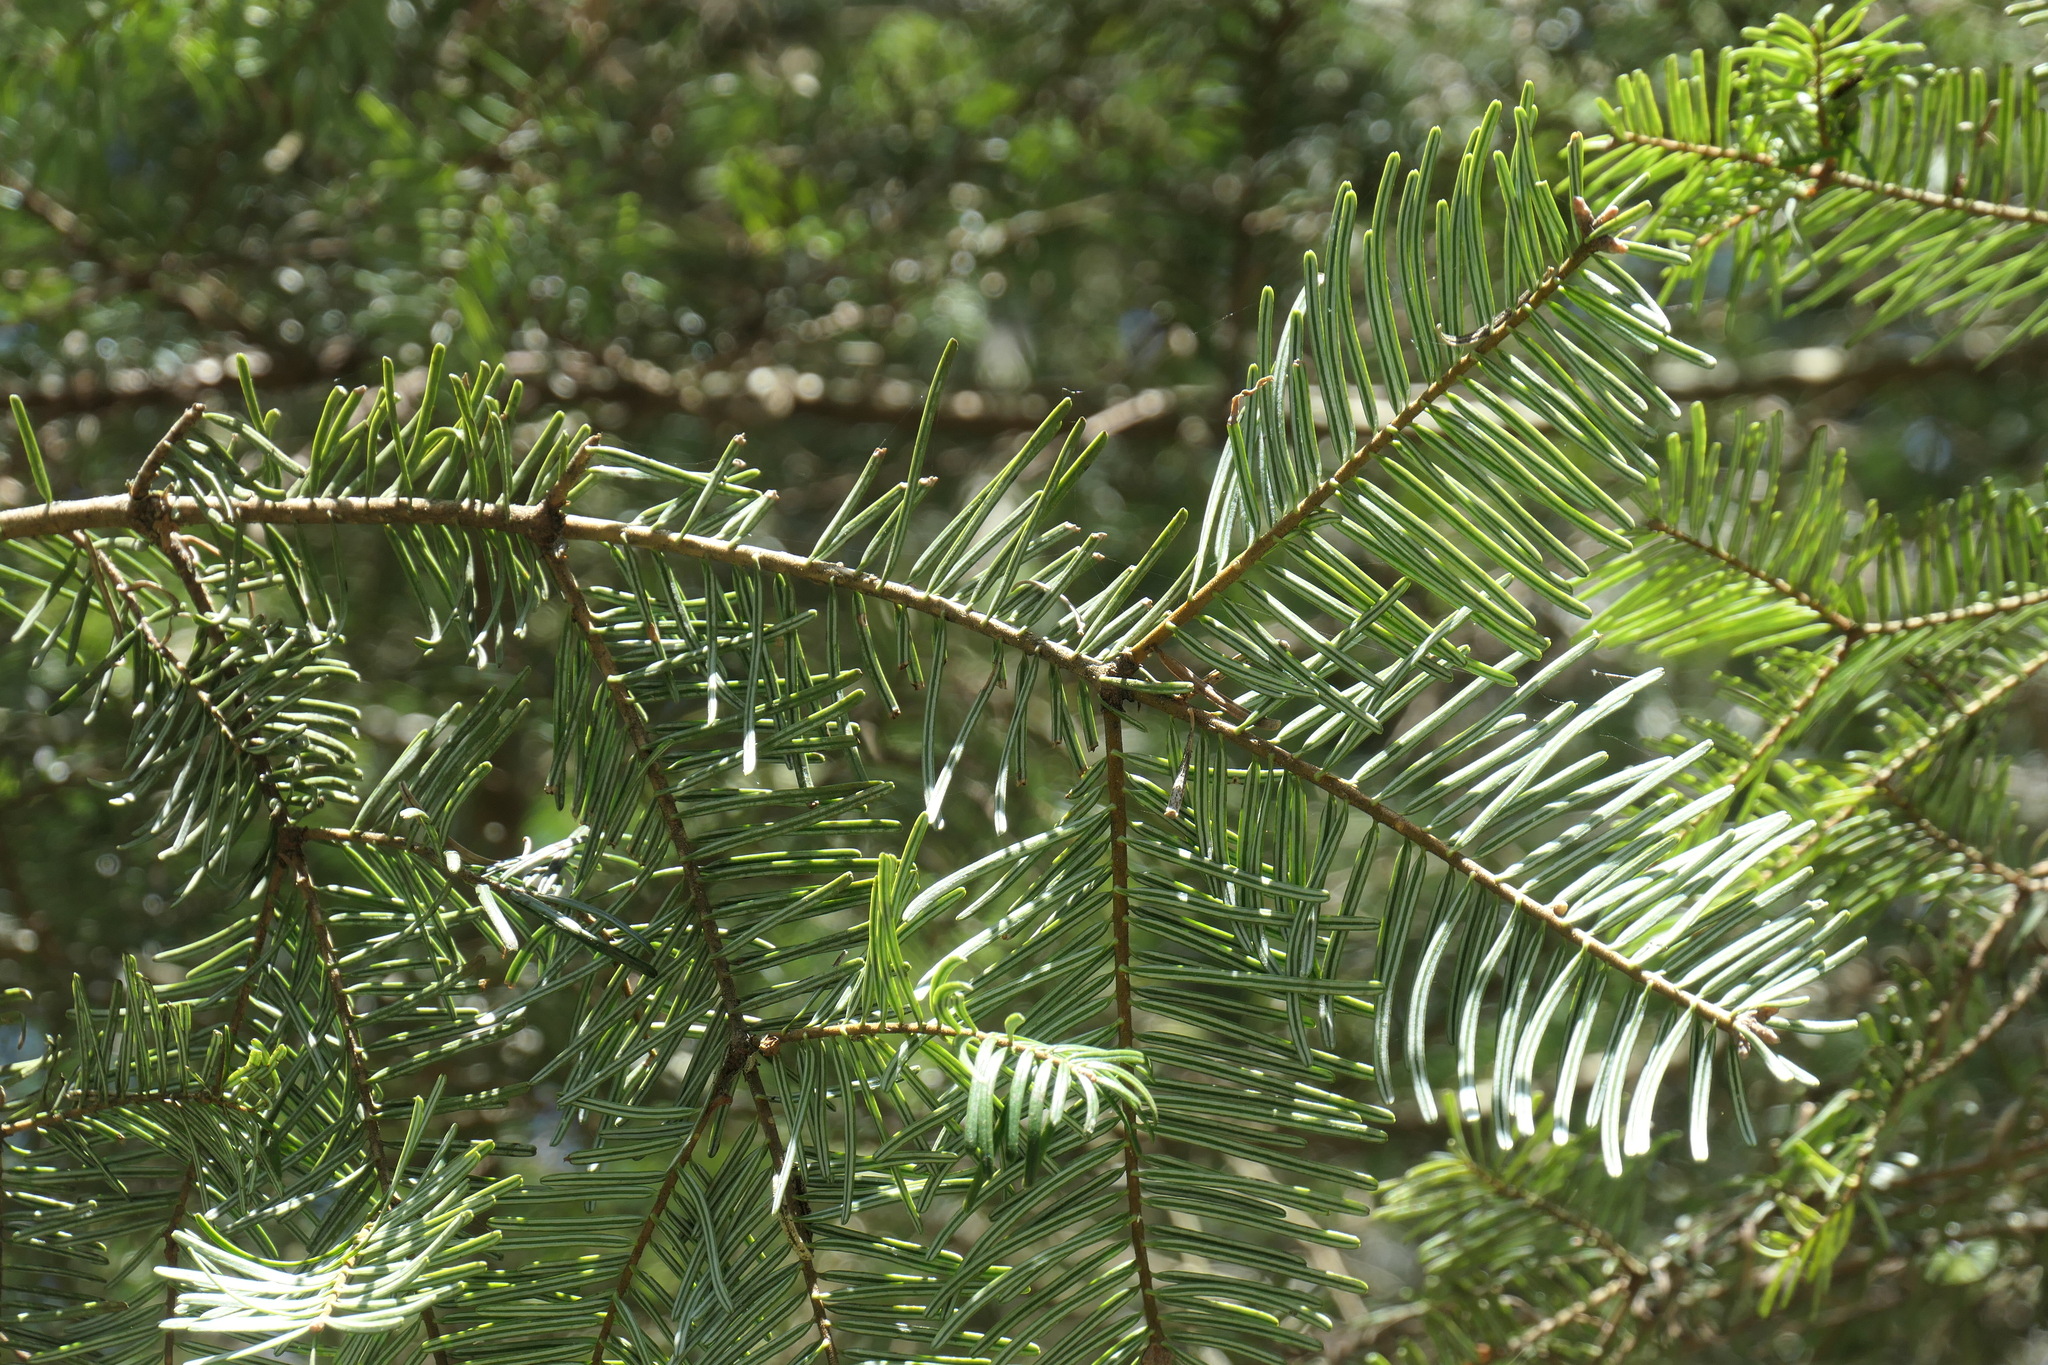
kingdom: Plantae
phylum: Tracheophyta
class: Pinopsida
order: Pinales
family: Pinaceae
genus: Abies
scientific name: Abies grandis
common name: Giant fir
